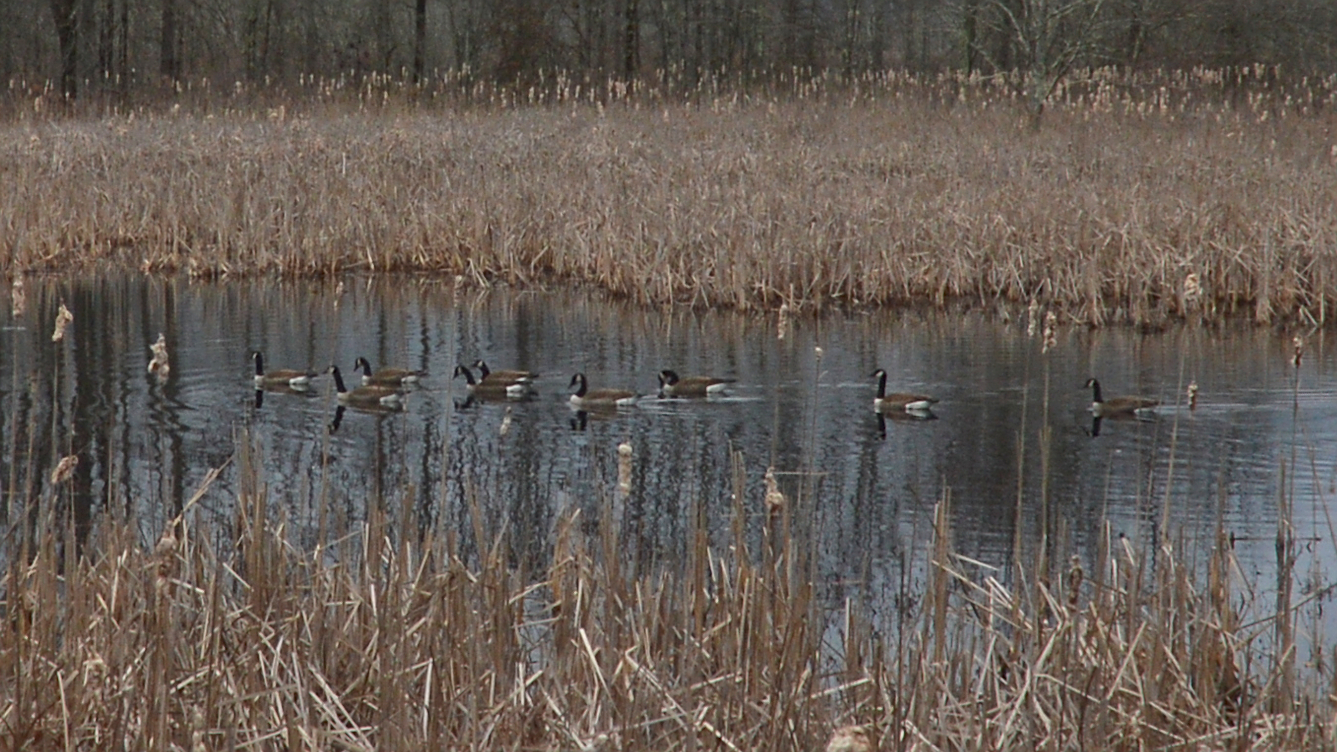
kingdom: Animalia
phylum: Chordata
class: Aves
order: Anseriformes
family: Anatidae
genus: Branta
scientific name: Branta canadensis
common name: Canada goose
